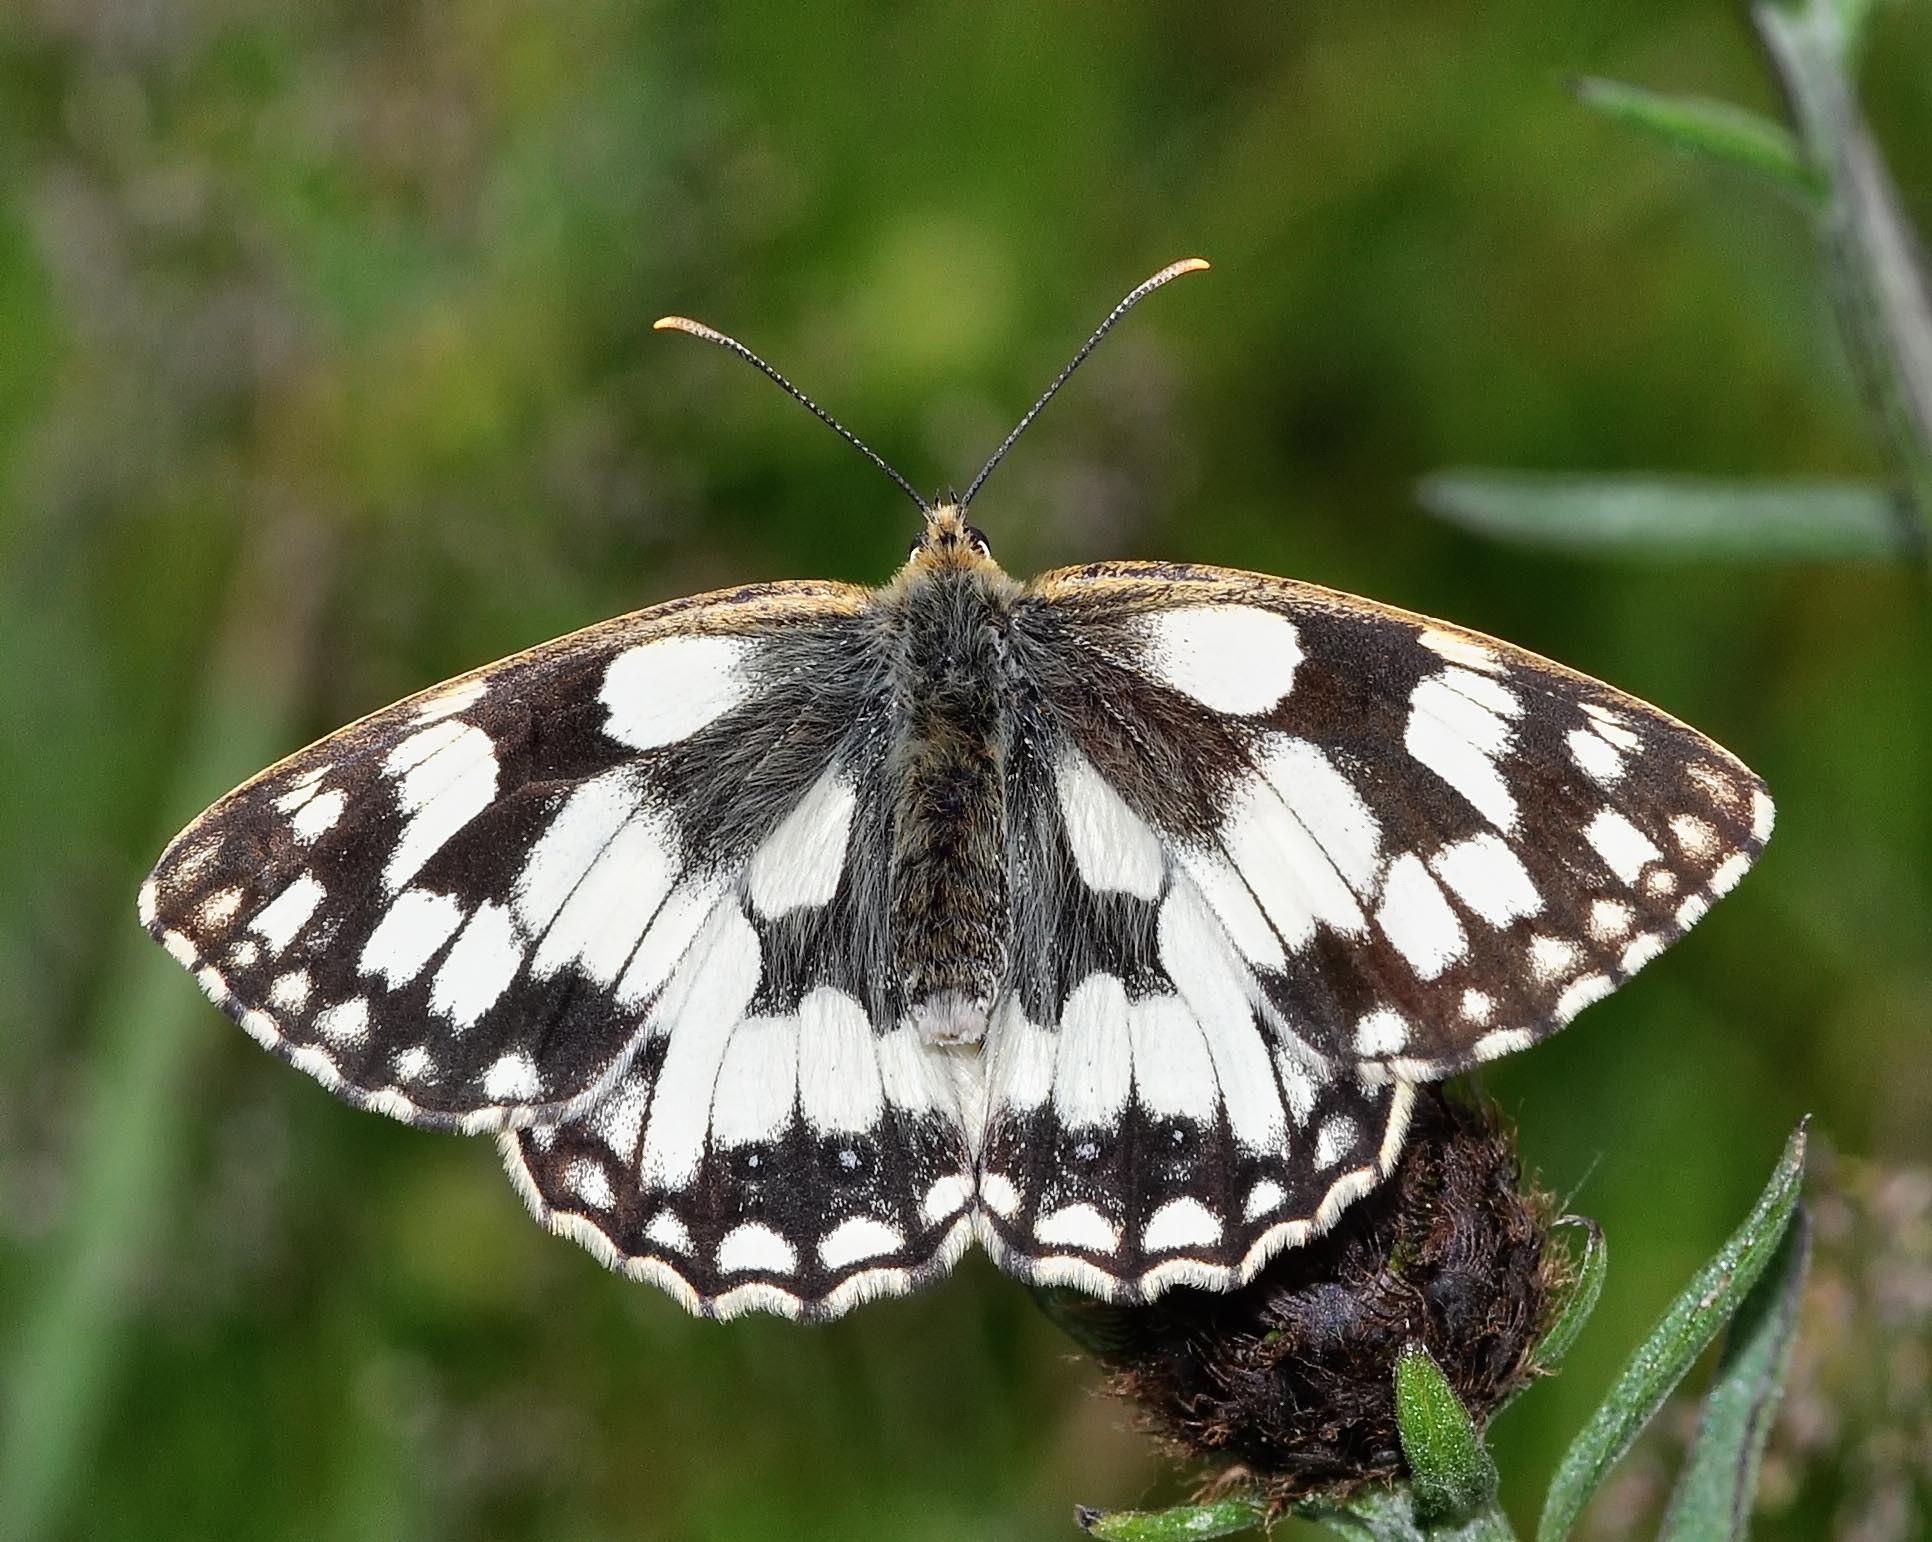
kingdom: Animalia
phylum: Arthropoda
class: Insecta
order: Lepidoptera
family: Nymphalidae
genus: Melanargia
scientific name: Melanargia galathea
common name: Marbled white
